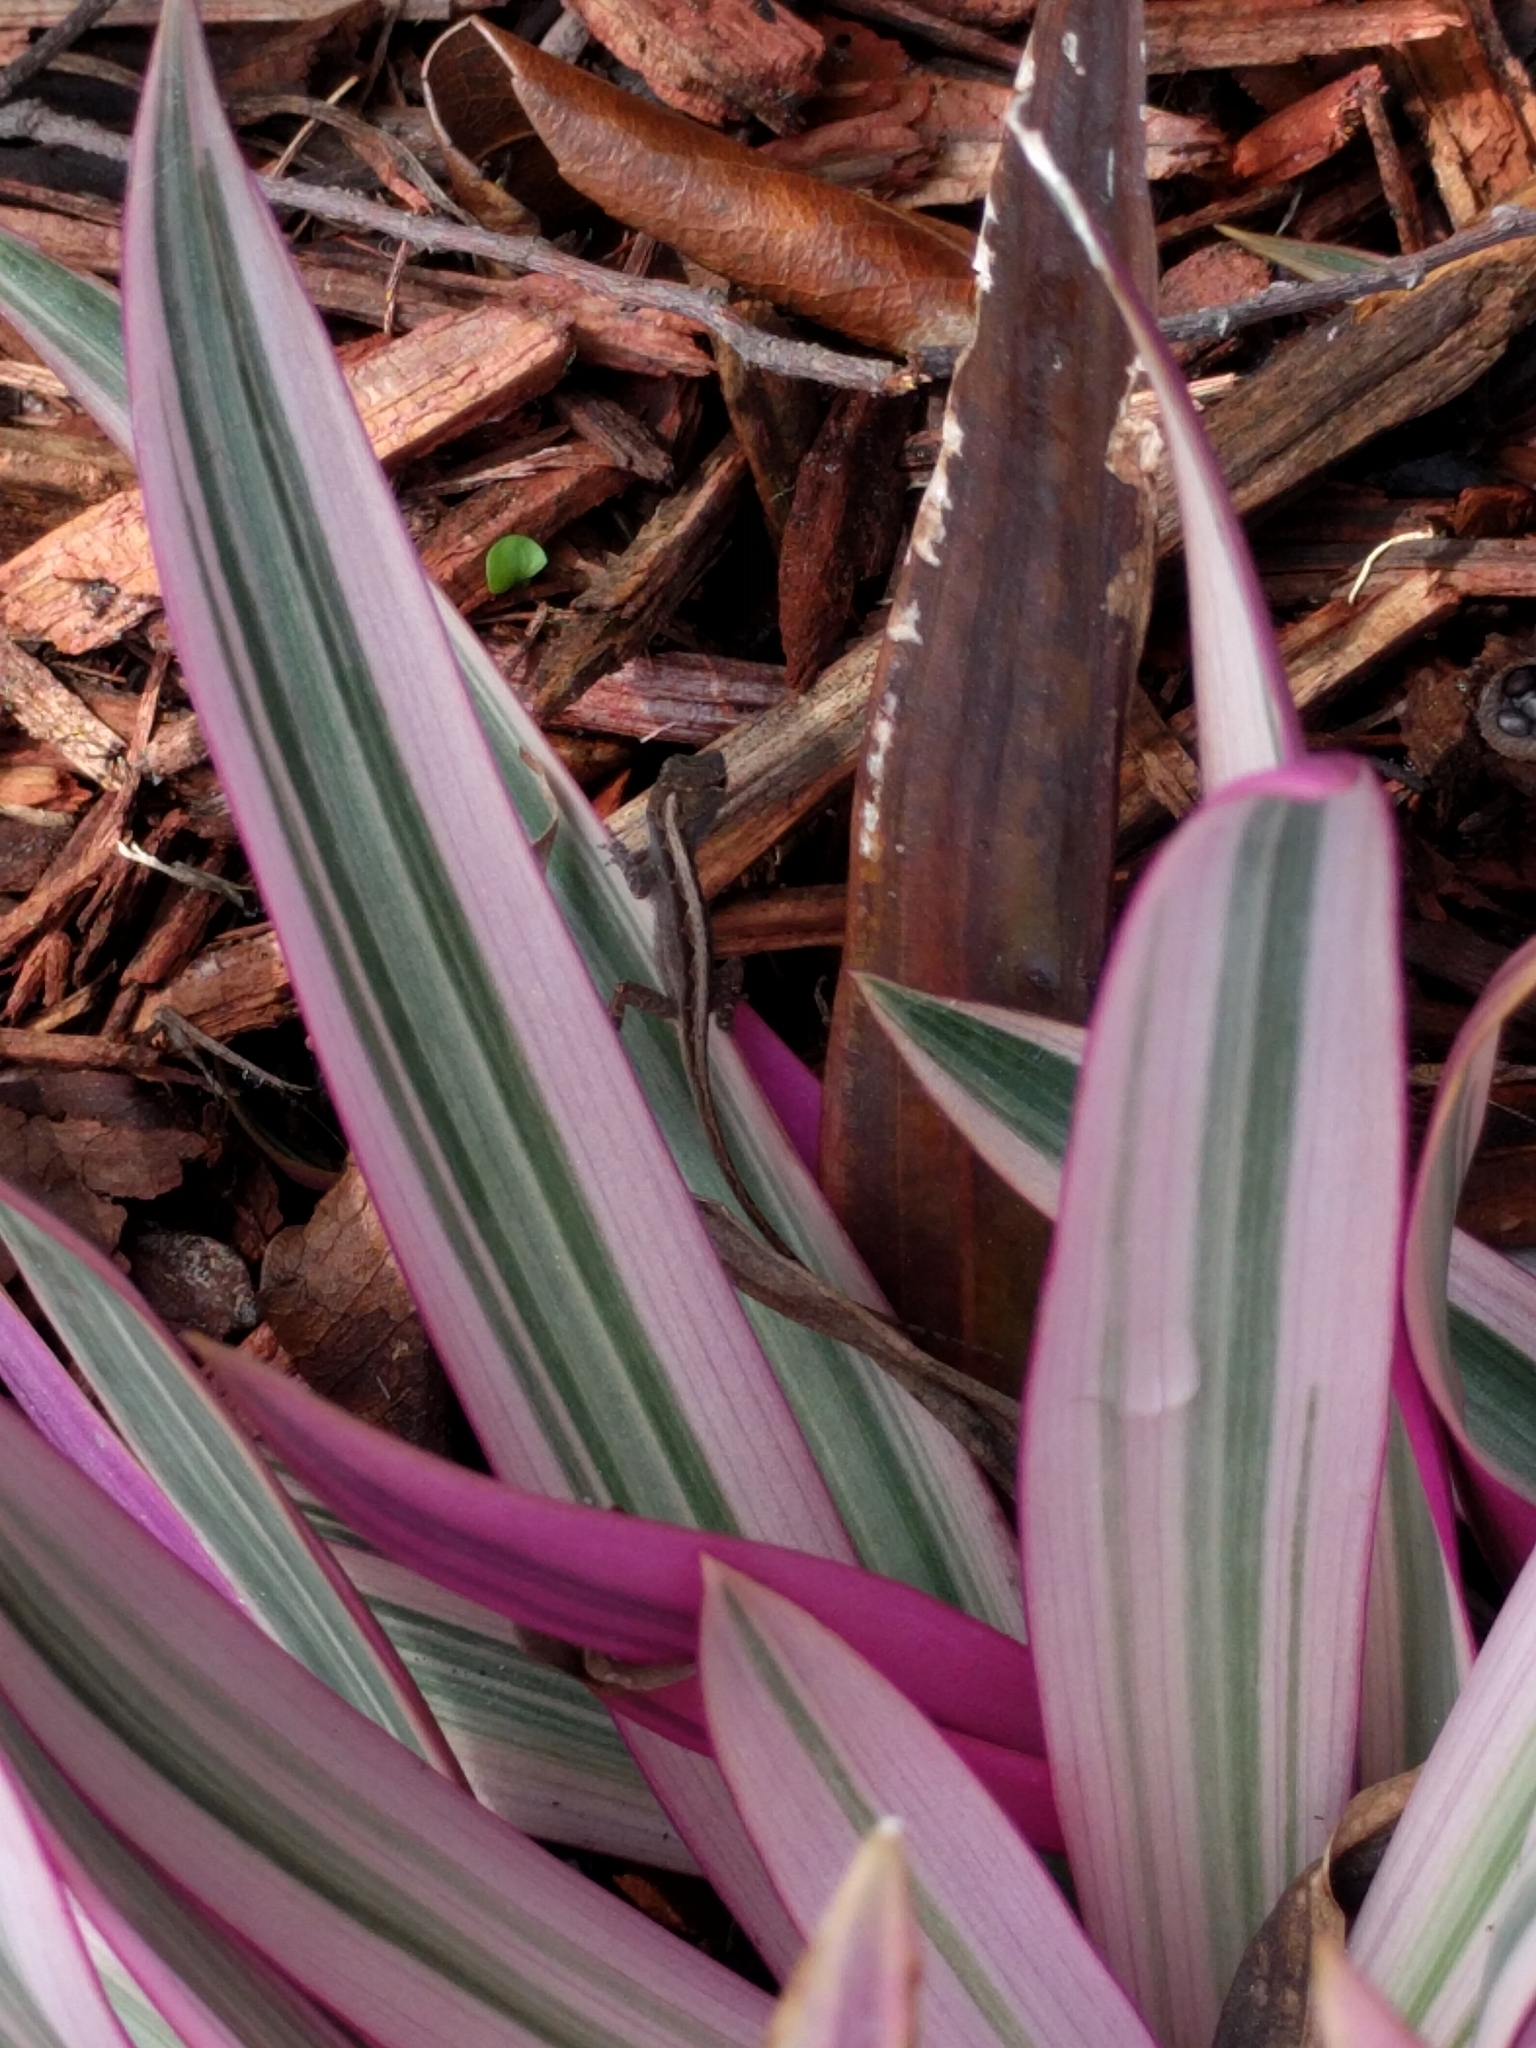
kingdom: Animalia
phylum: Chordata
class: Squamata
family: Dactyloidae
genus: Anolis
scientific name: Anolis sagrei
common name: Brown anole
